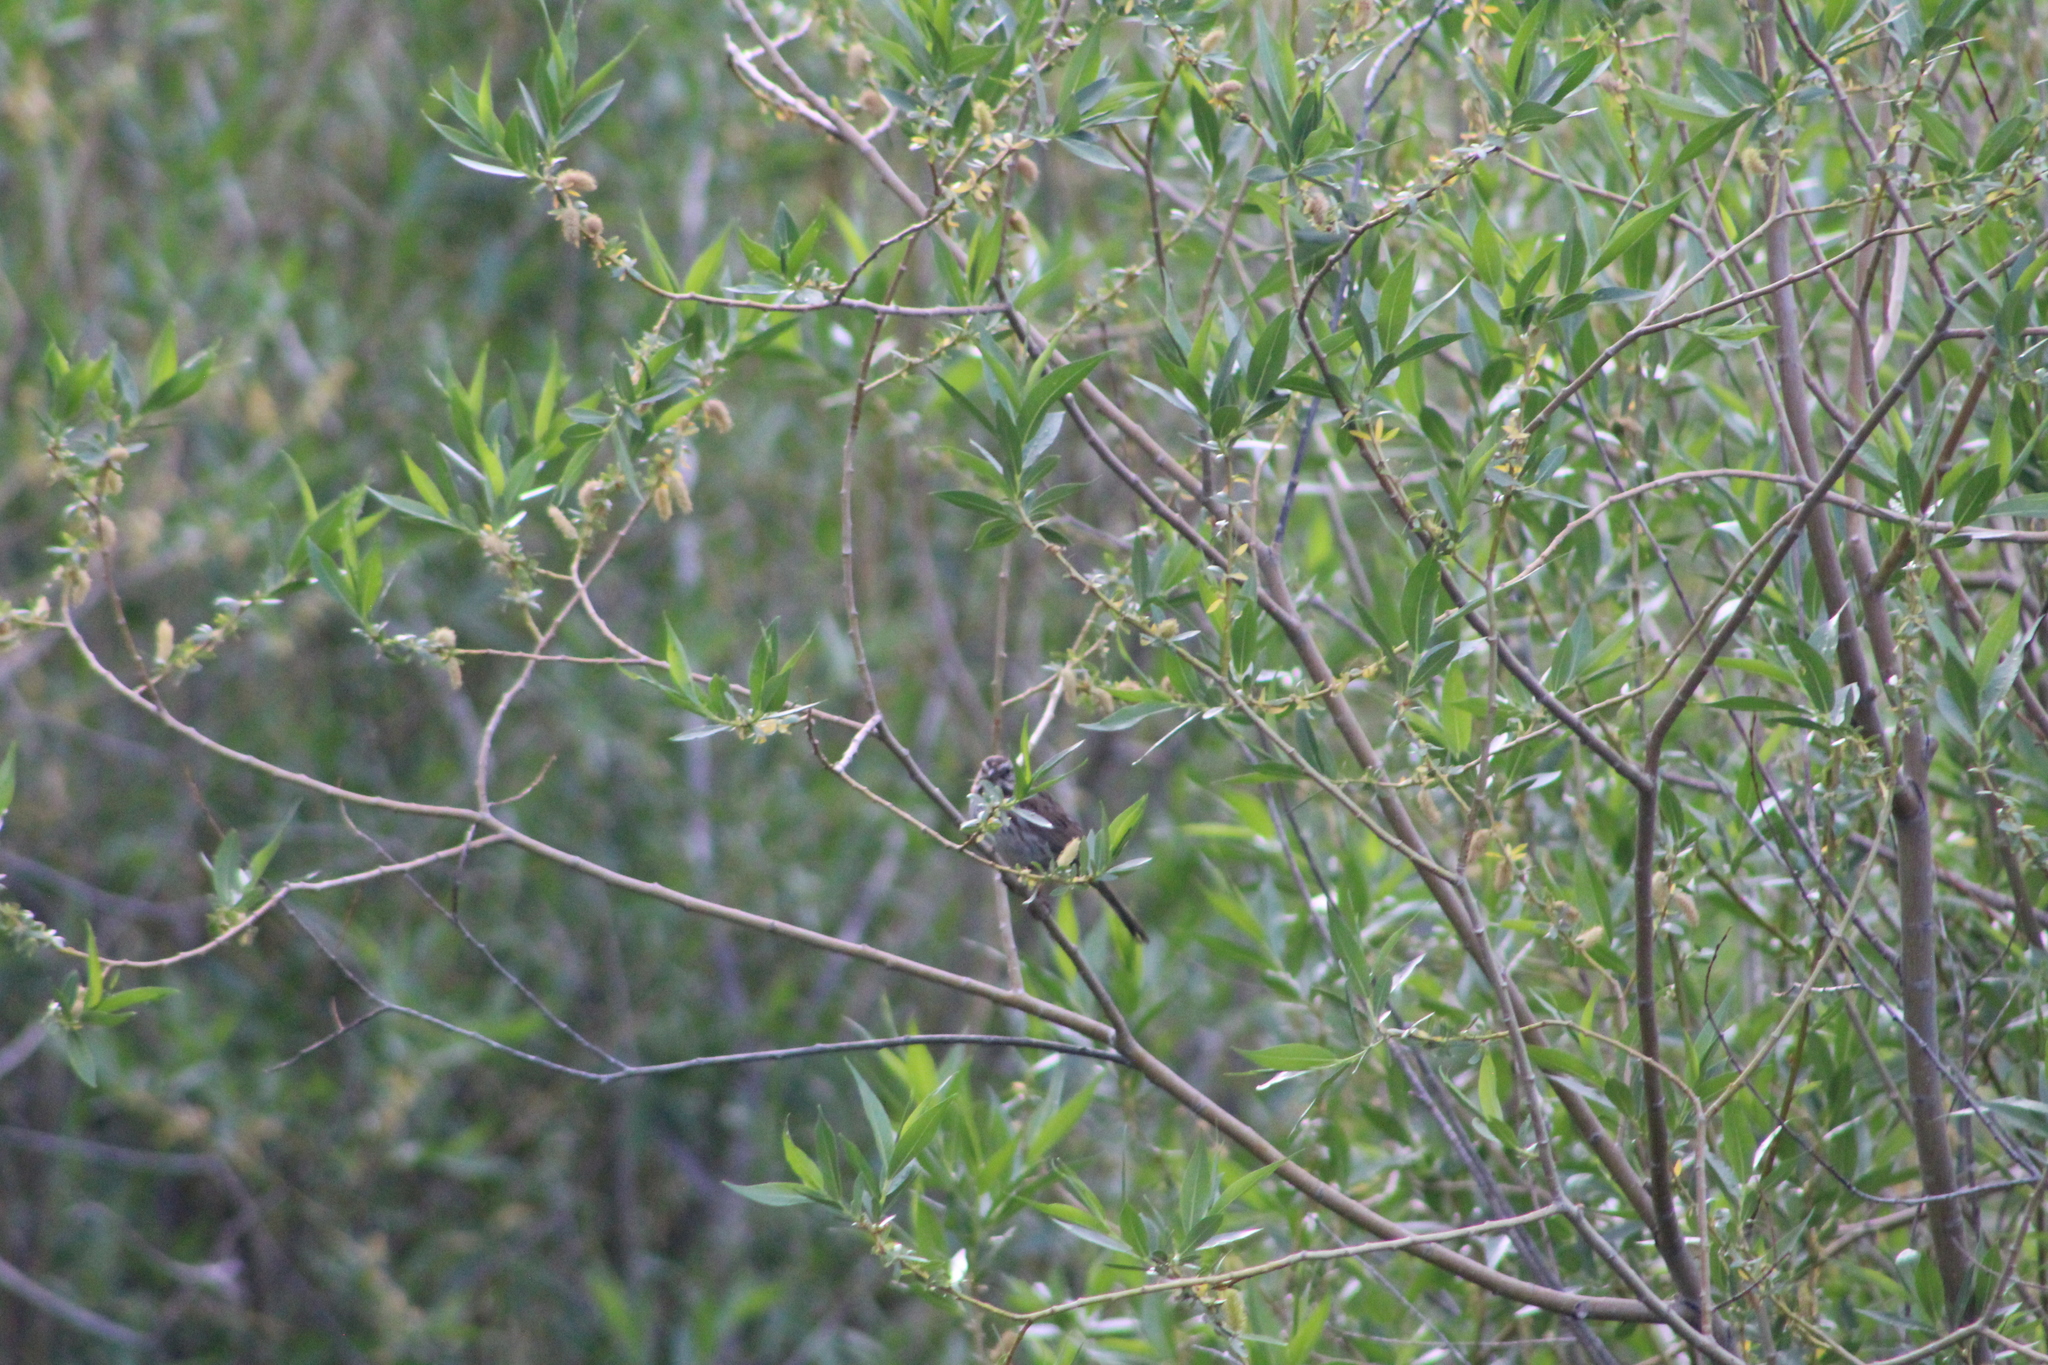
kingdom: Animalia
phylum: Chordata
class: Aves
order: Passeriformes
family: Passerellidae
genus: Melospiza
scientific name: Melospiza melodia
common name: Song sparrow
